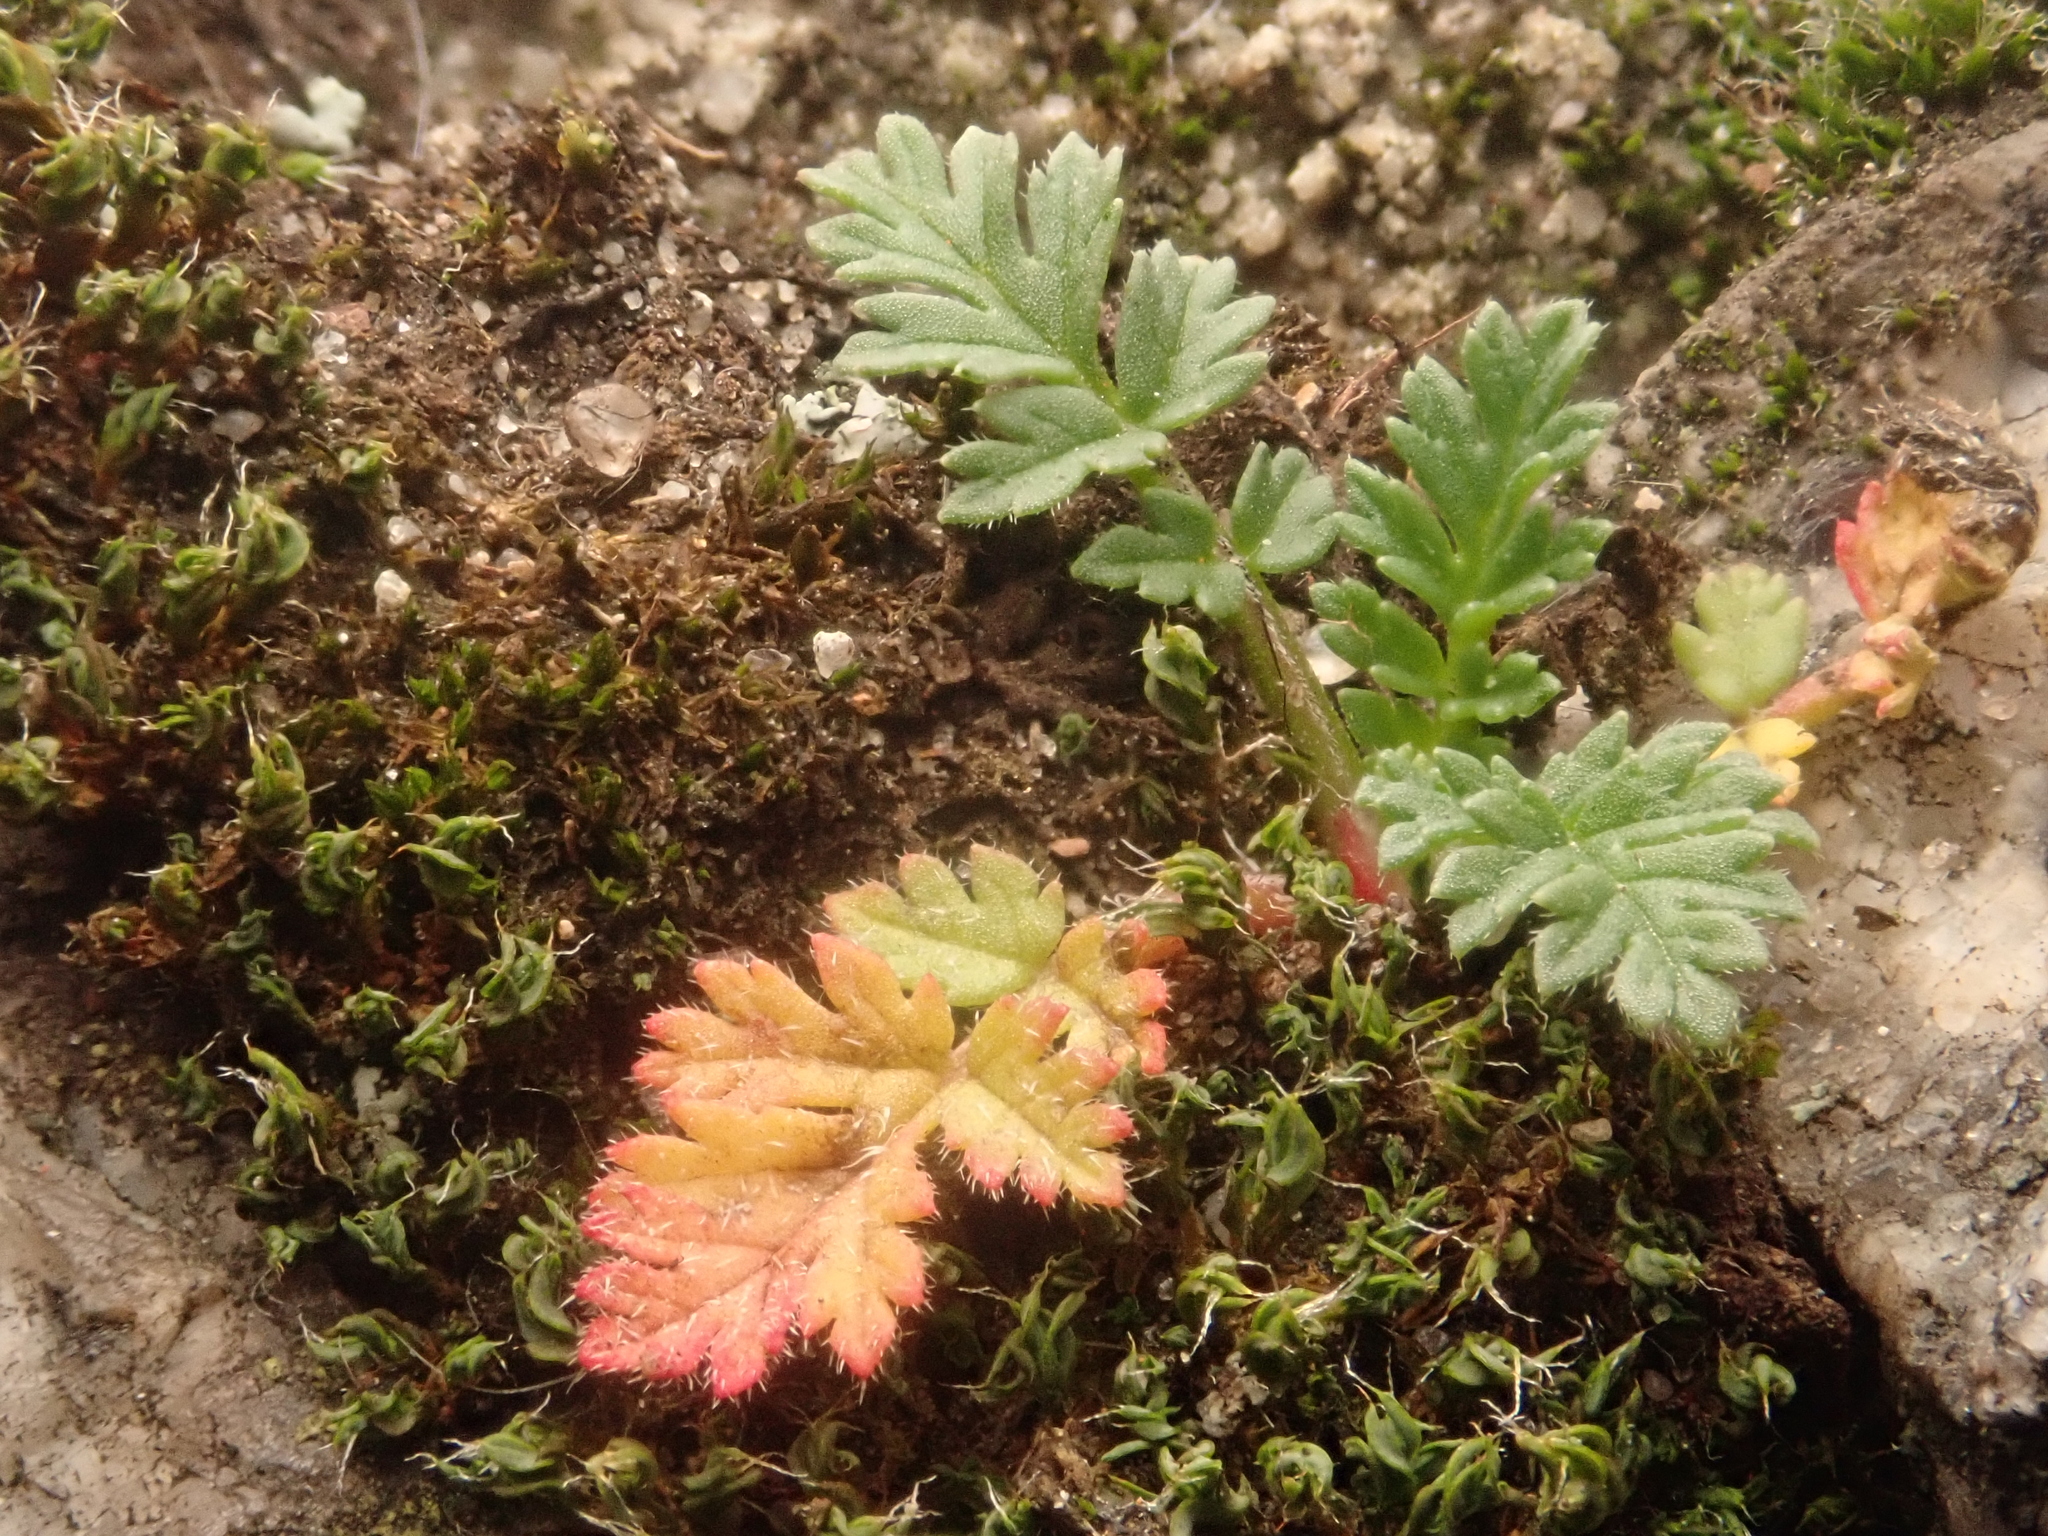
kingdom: Plantae
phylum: Tracheophyta
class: Magnoliopsida
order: Geraniales
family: Geraniaceae
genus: Erodium
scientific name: Erodium cicutarium
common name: Common stork's-bill
